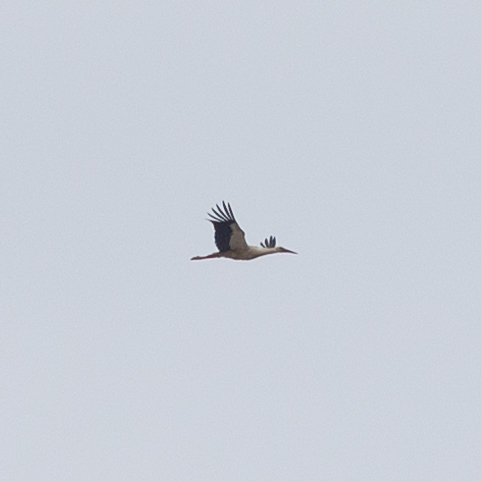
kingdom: Animalia
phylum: Chordata
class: Aves
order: Ciconiiformes
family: Ciconiidae
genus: Ciconia
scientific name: Ciconia ciconia
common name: White stork
